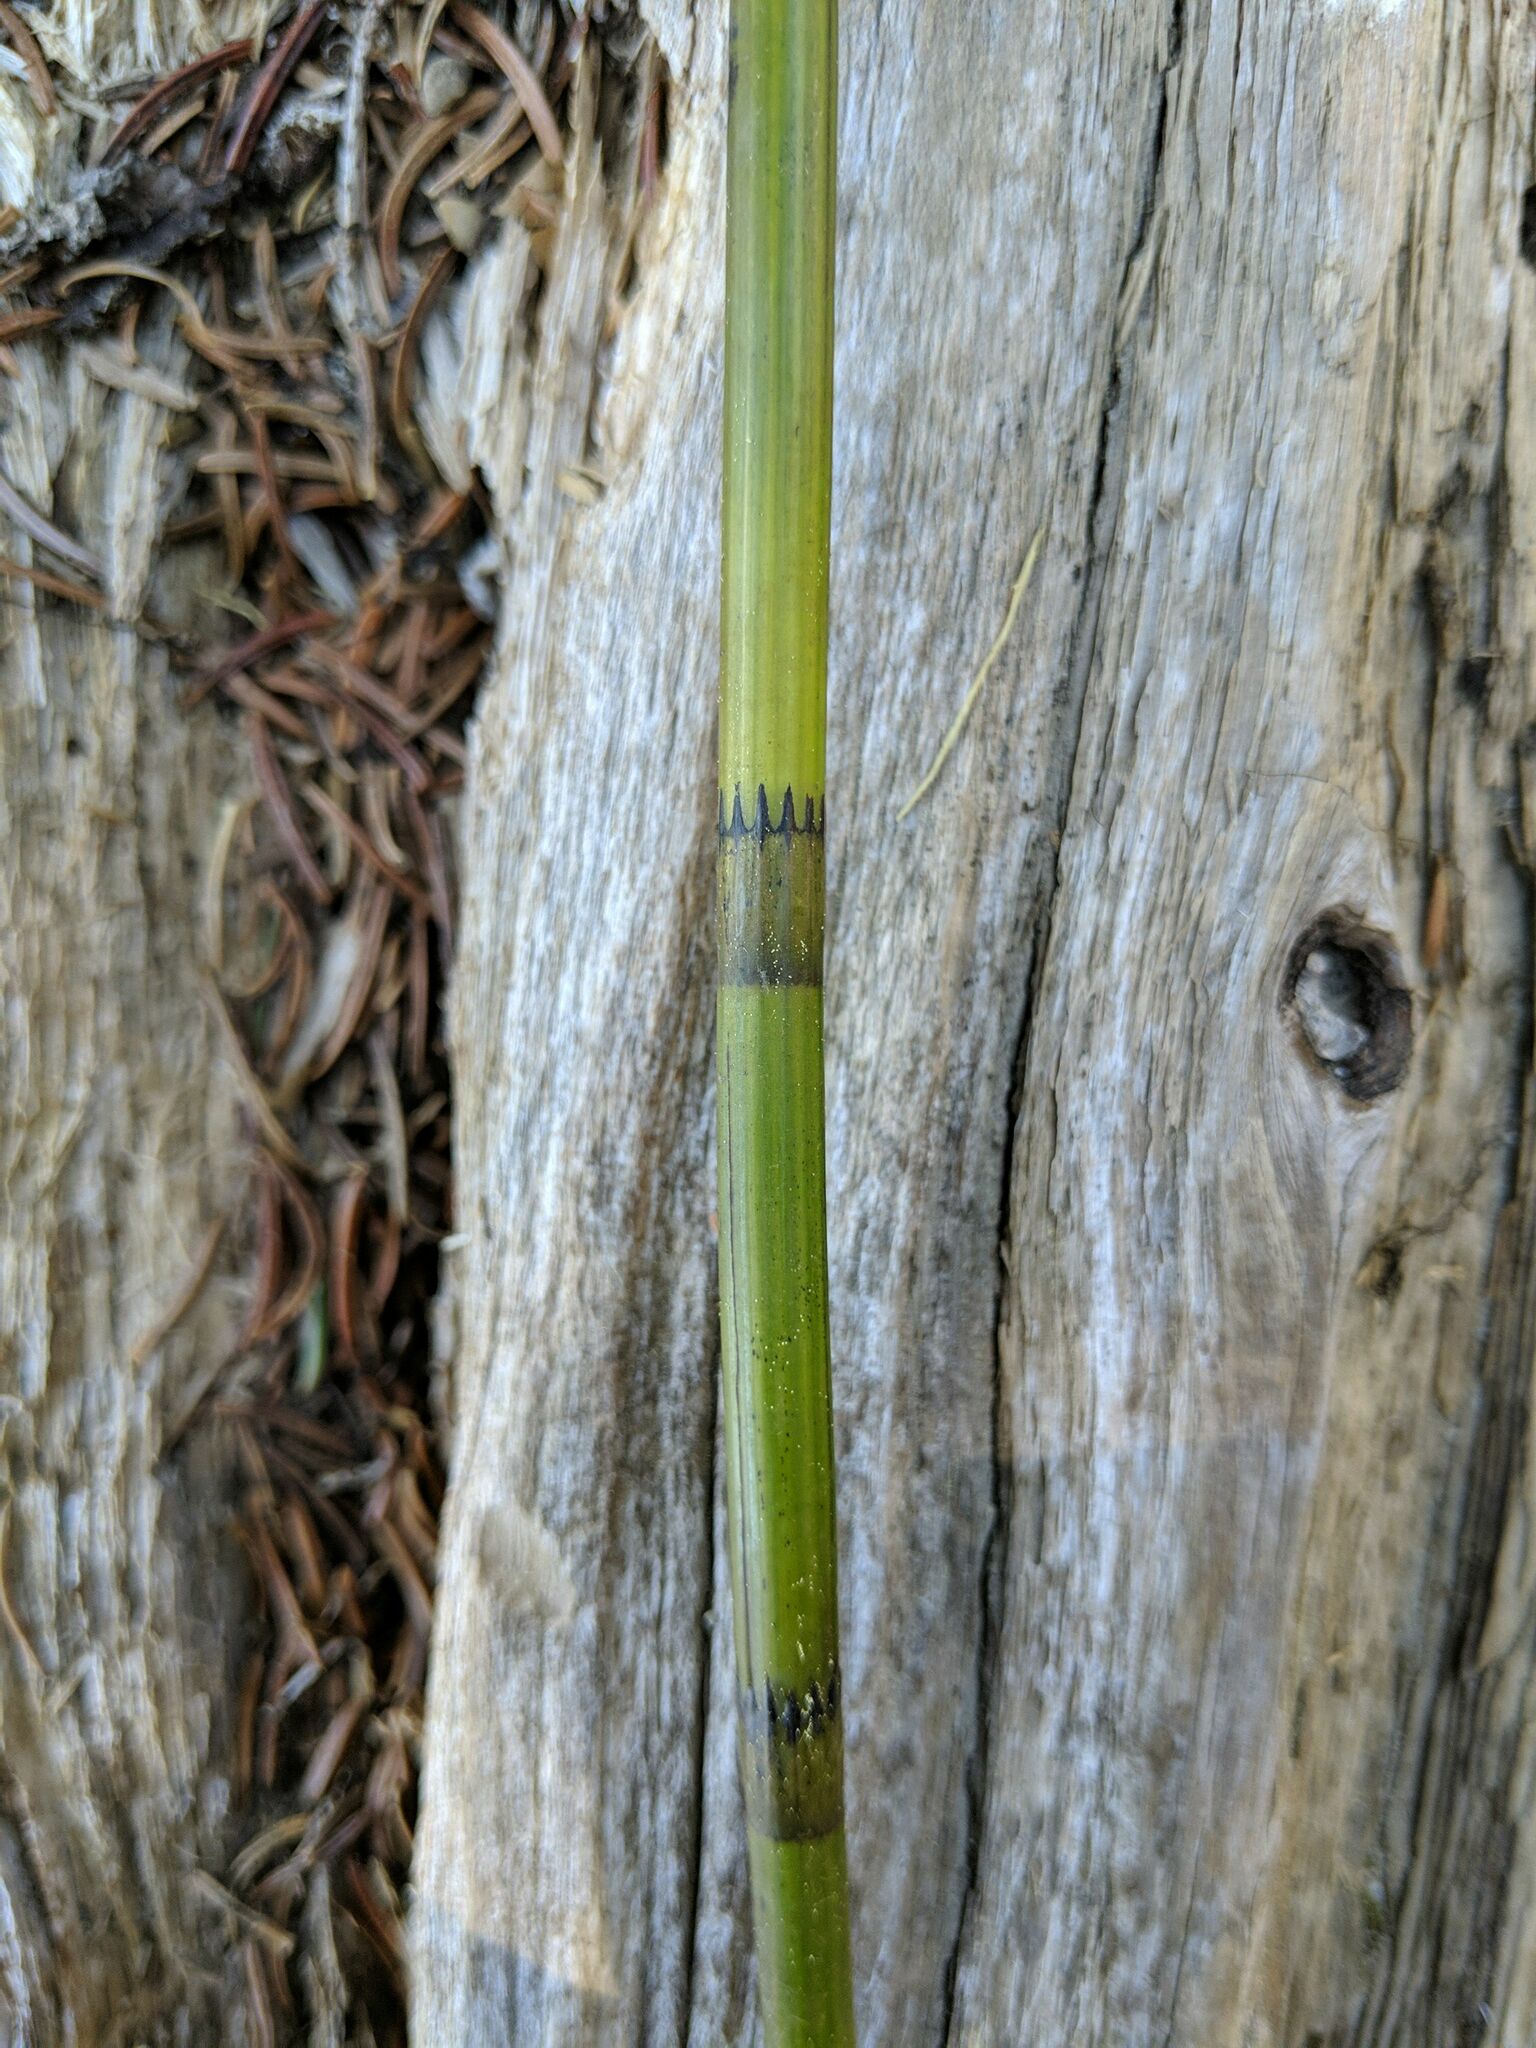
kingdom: Plantae
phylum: Tracheophyta
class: Polypodiopsida
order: Equisetales
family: Equisetaceae
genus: Equisetum
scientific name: Equisetum fluviatile
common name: Water horsetail
